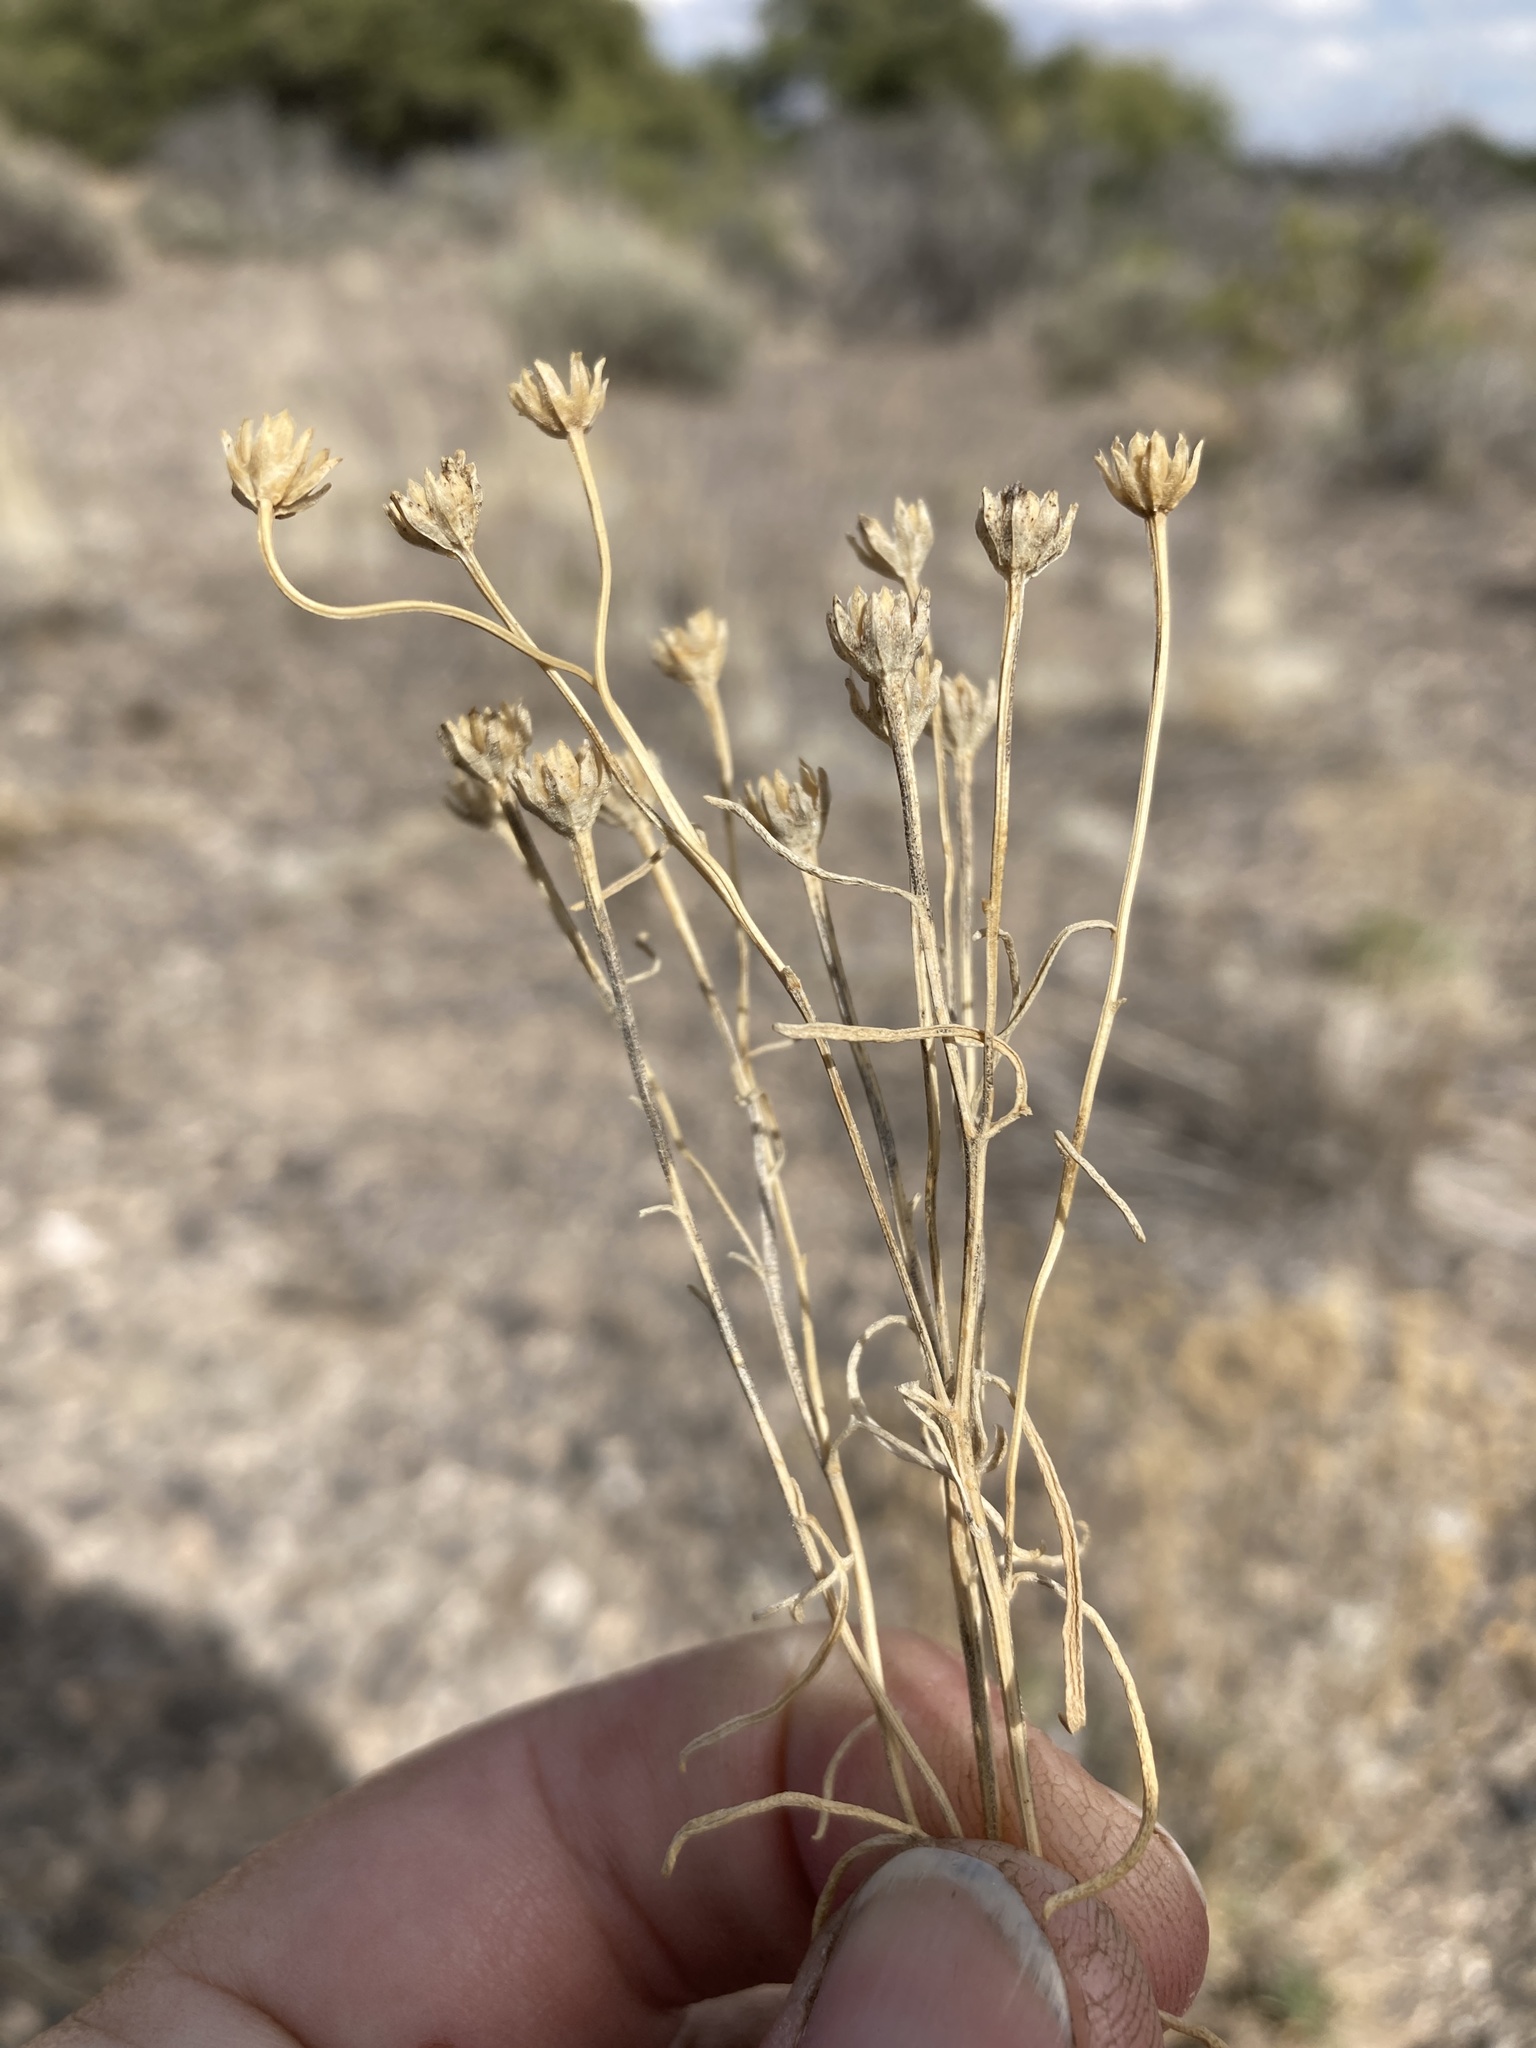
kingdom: Plantae
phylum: Tracheophyta
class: Magnoliopsida
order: Asterales
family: Asteraceae
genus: Hymenoxys
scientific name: Hymenoxys richardsonii
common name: Pingue rubberweed
